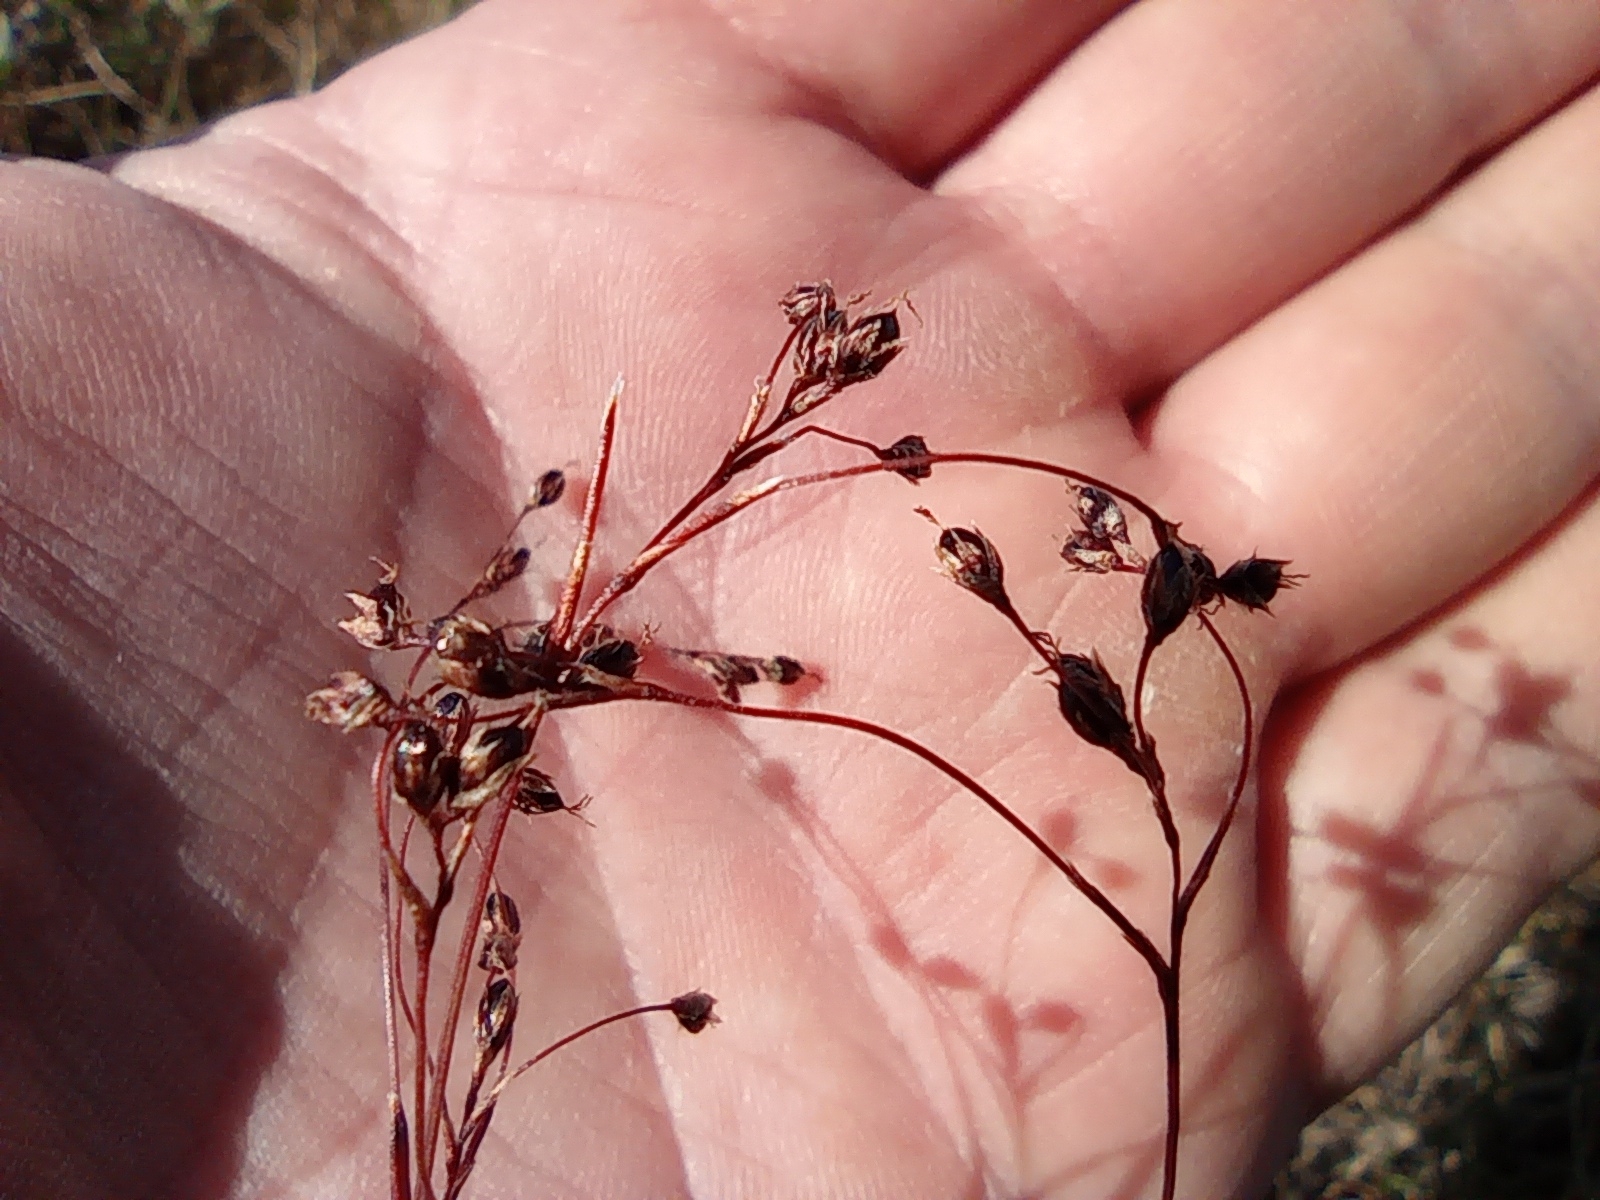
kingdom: Plantae
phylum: Tracheophyta
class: Liliopsida
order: Poales
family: Juncaceae
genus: Luzula
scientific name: Luzula wahlenbergii
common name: Wahlenberg's wood-rush
